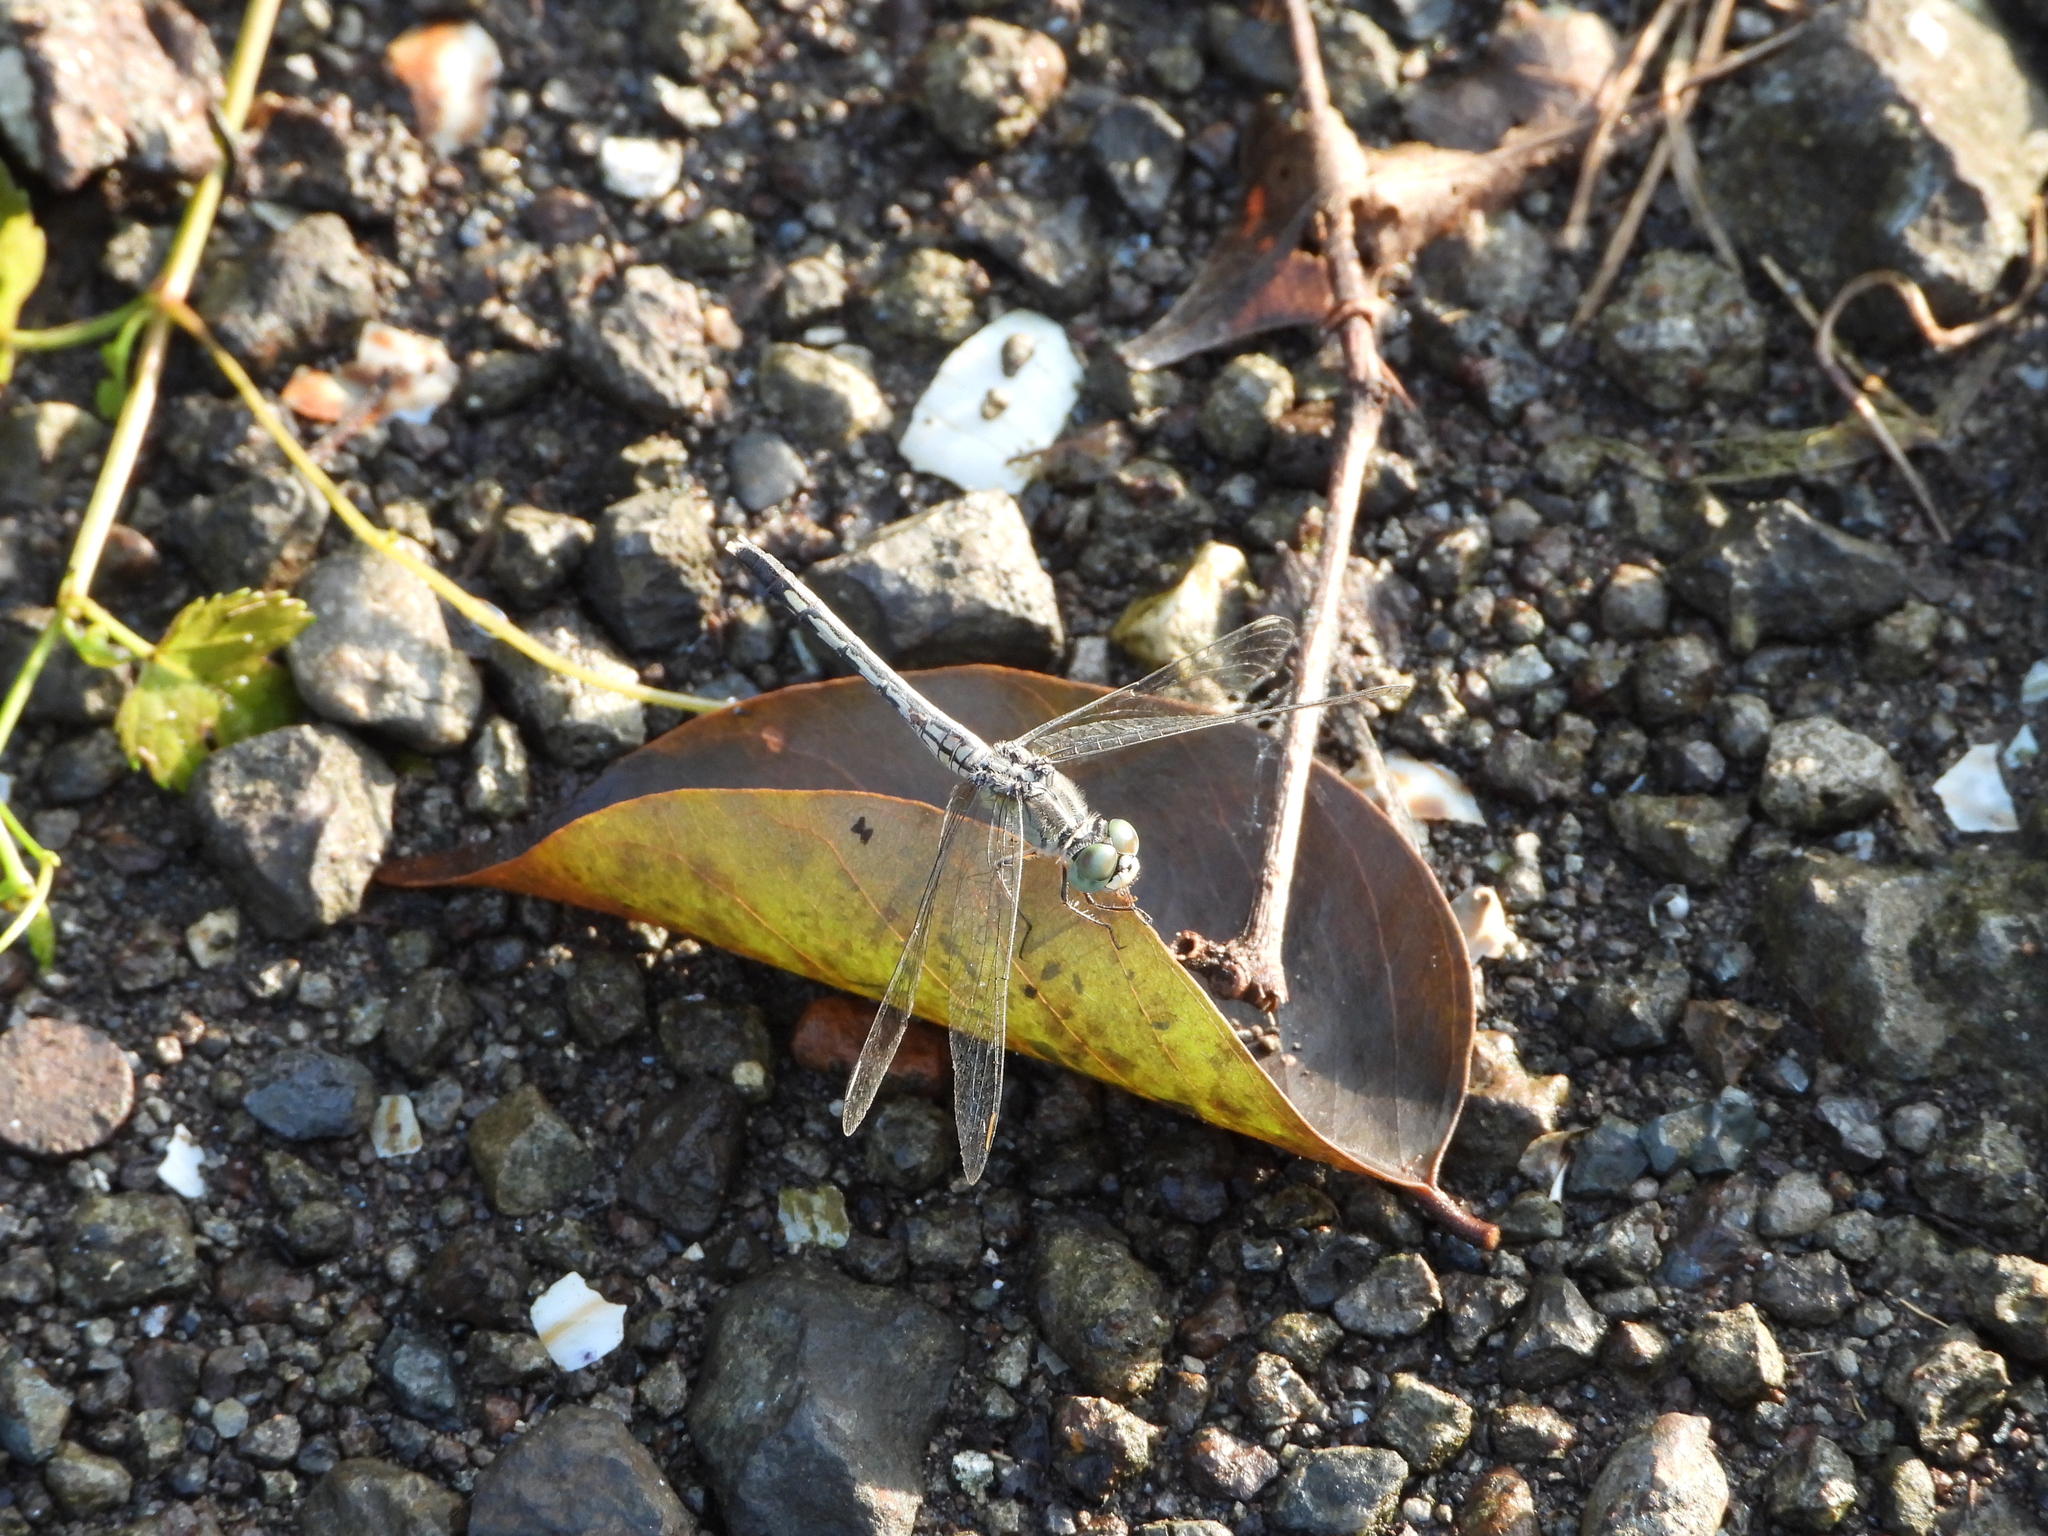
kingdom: Animalia
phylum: Arthropoda
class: Insecta
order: Odonata
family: Libellulidae
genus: Diplacodes
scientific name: Diplacodes trivialis
